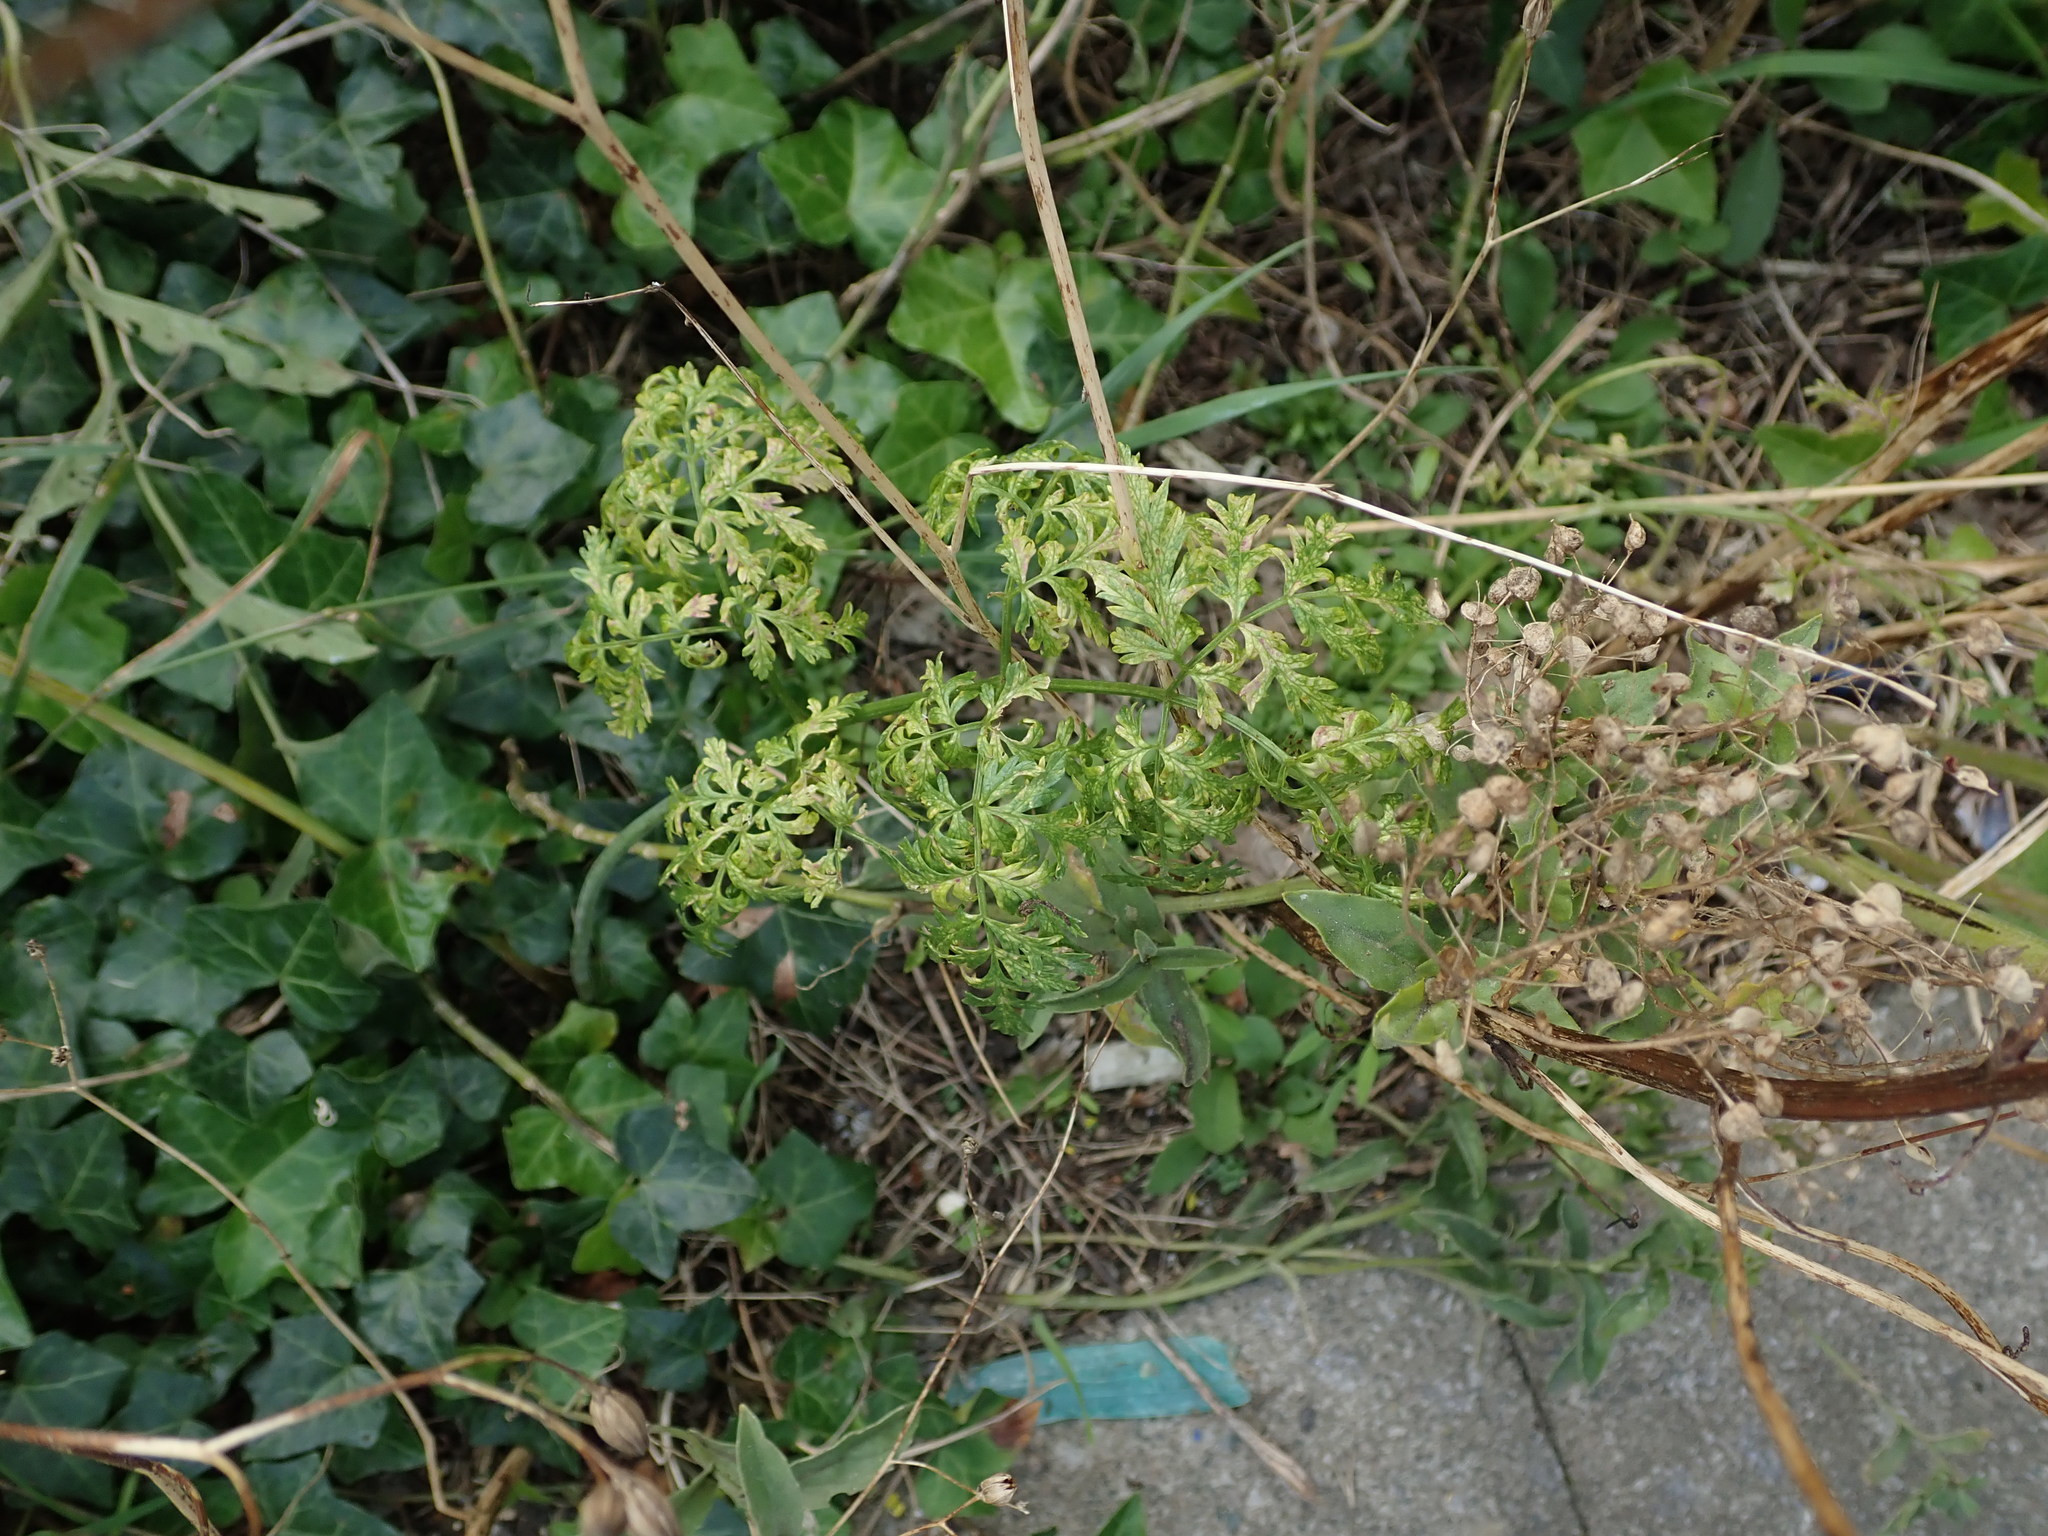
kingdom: Plantae
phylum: Tracheophyta
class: Magnoliopsida
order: Apiales
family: Apiaceae
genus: Conium
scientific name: Conium maculatum
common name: Hemlock
